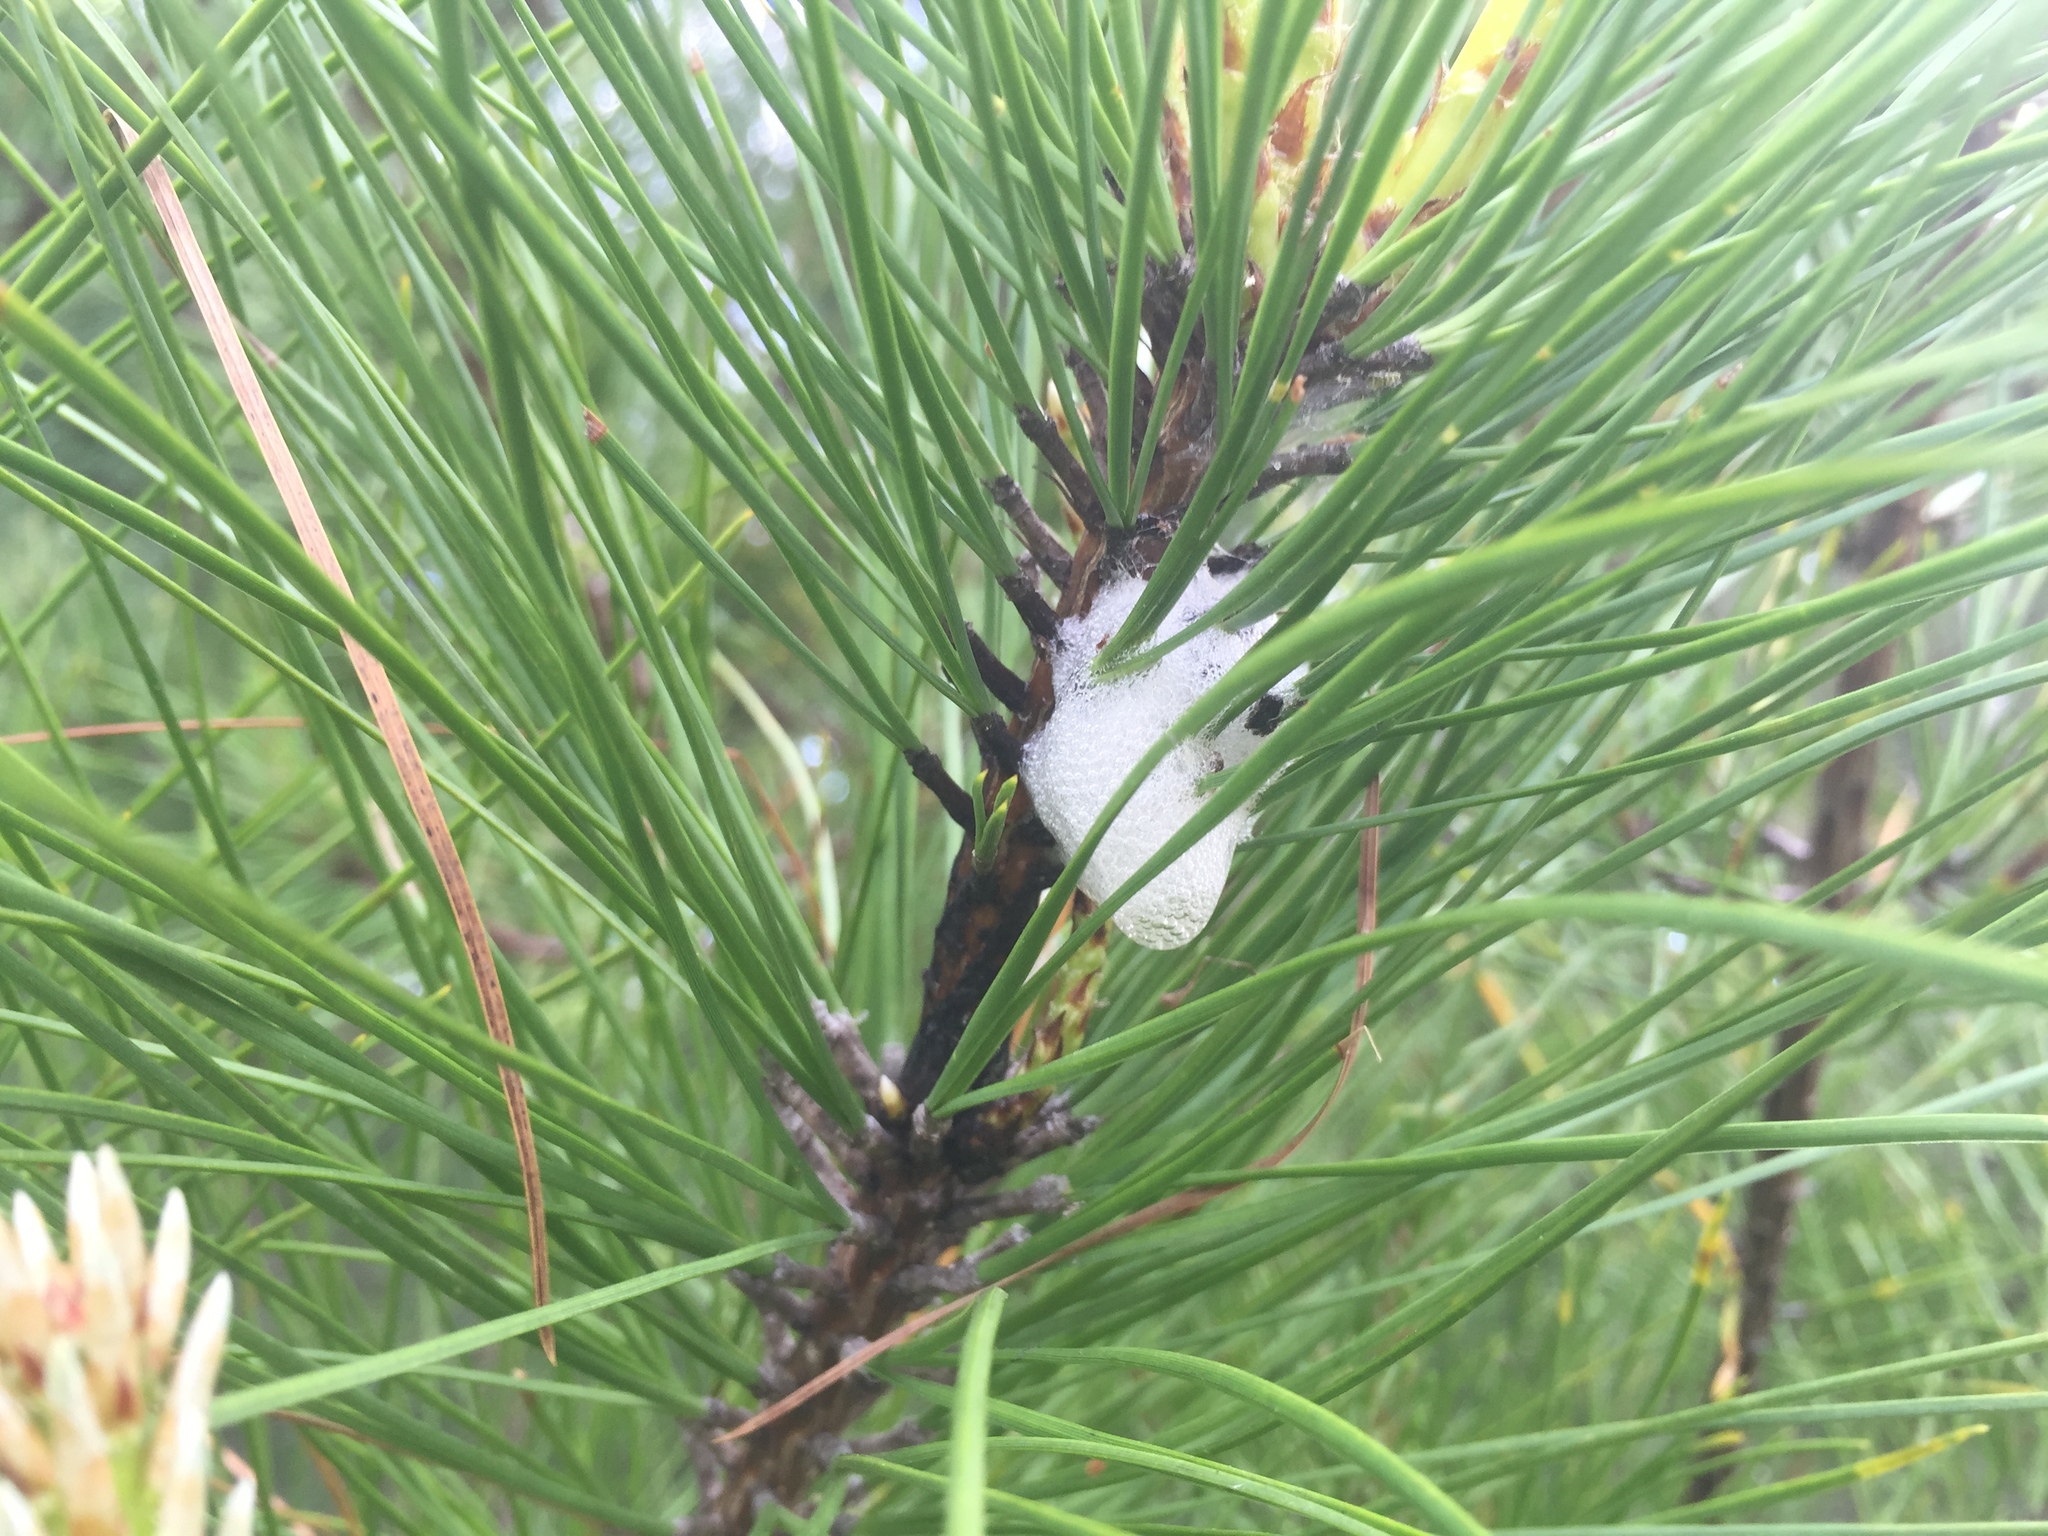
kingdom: Animalia
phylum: Arthropoda
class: Insecta
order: Hemiptera
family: Epipygidae
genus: Epipyga
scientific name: Epipyga cribrata
